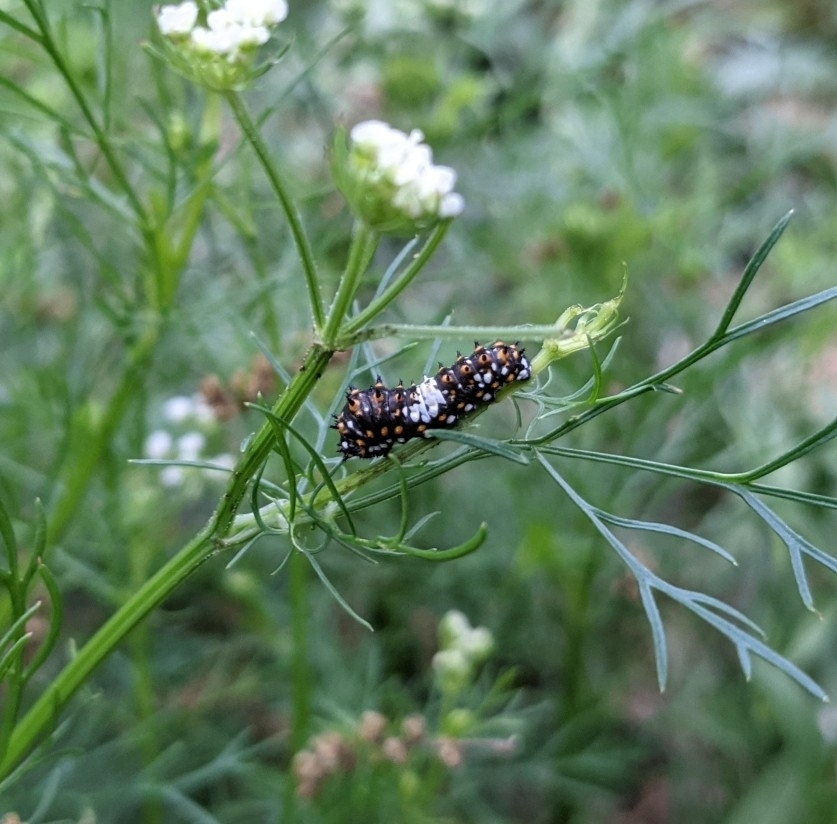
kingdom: Animalia
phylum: Arthropoda
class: Insecta
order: Lepidoptera
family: Papilionidae
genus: Papilio
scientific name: Papilio polyxenes
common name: Black swallowtail
